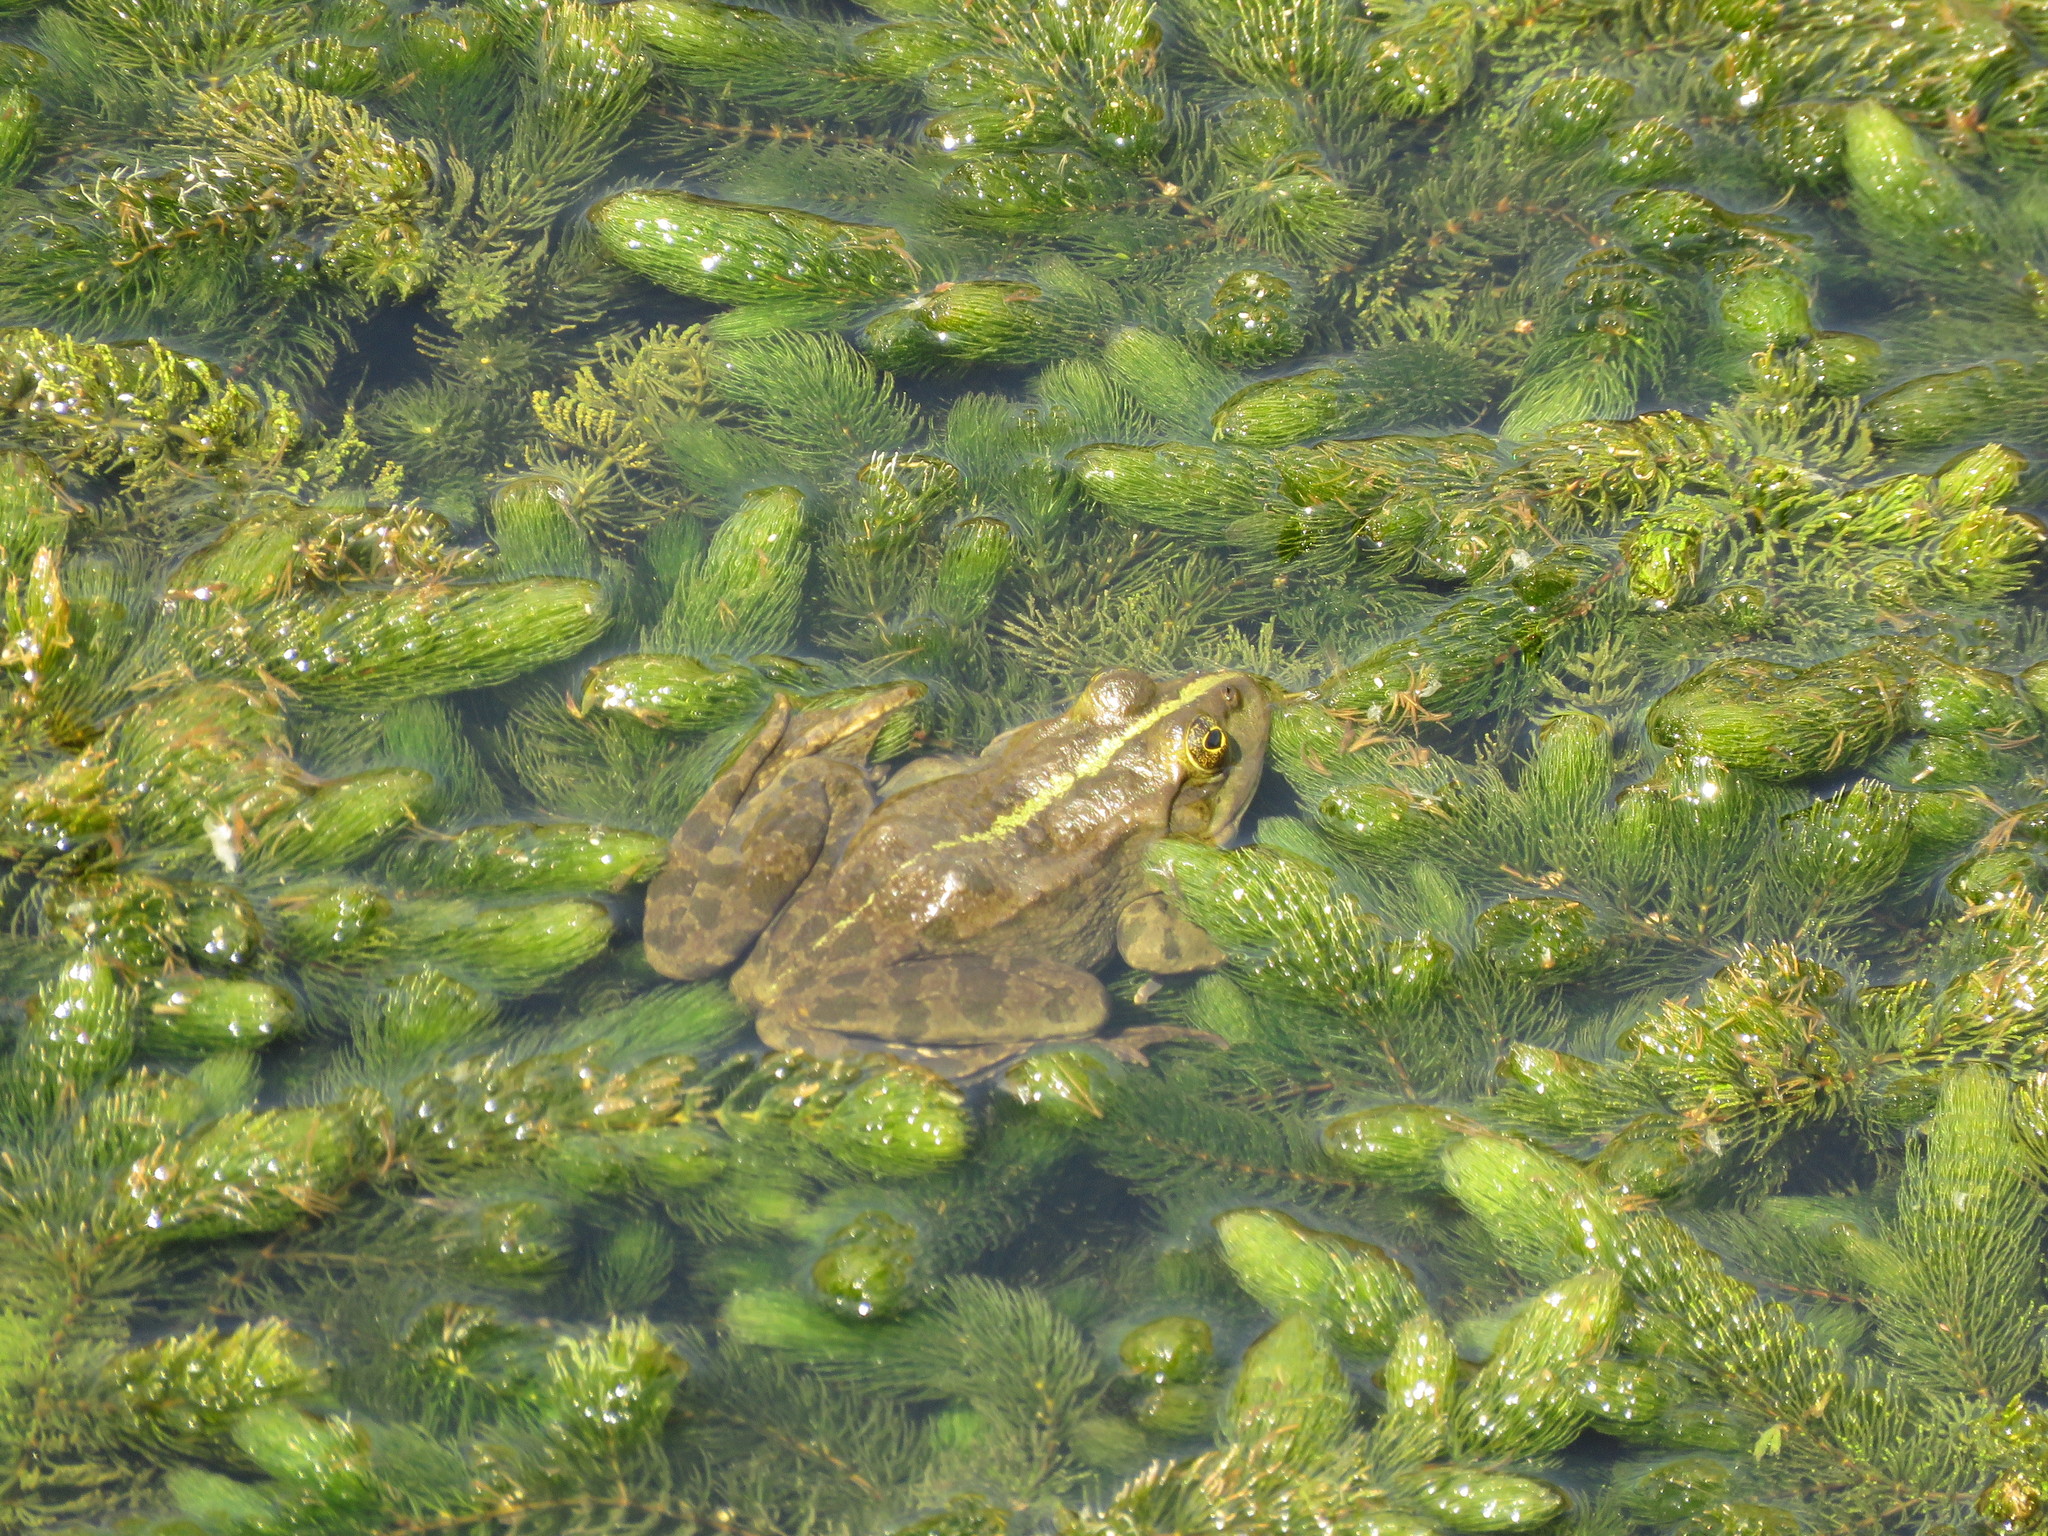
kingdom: Animalia
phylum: Chordata
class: Amphibia
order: Anura
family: Ranidae
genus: Pelophylax
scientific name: Pelophylax ridibundus
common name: Marsh frog
